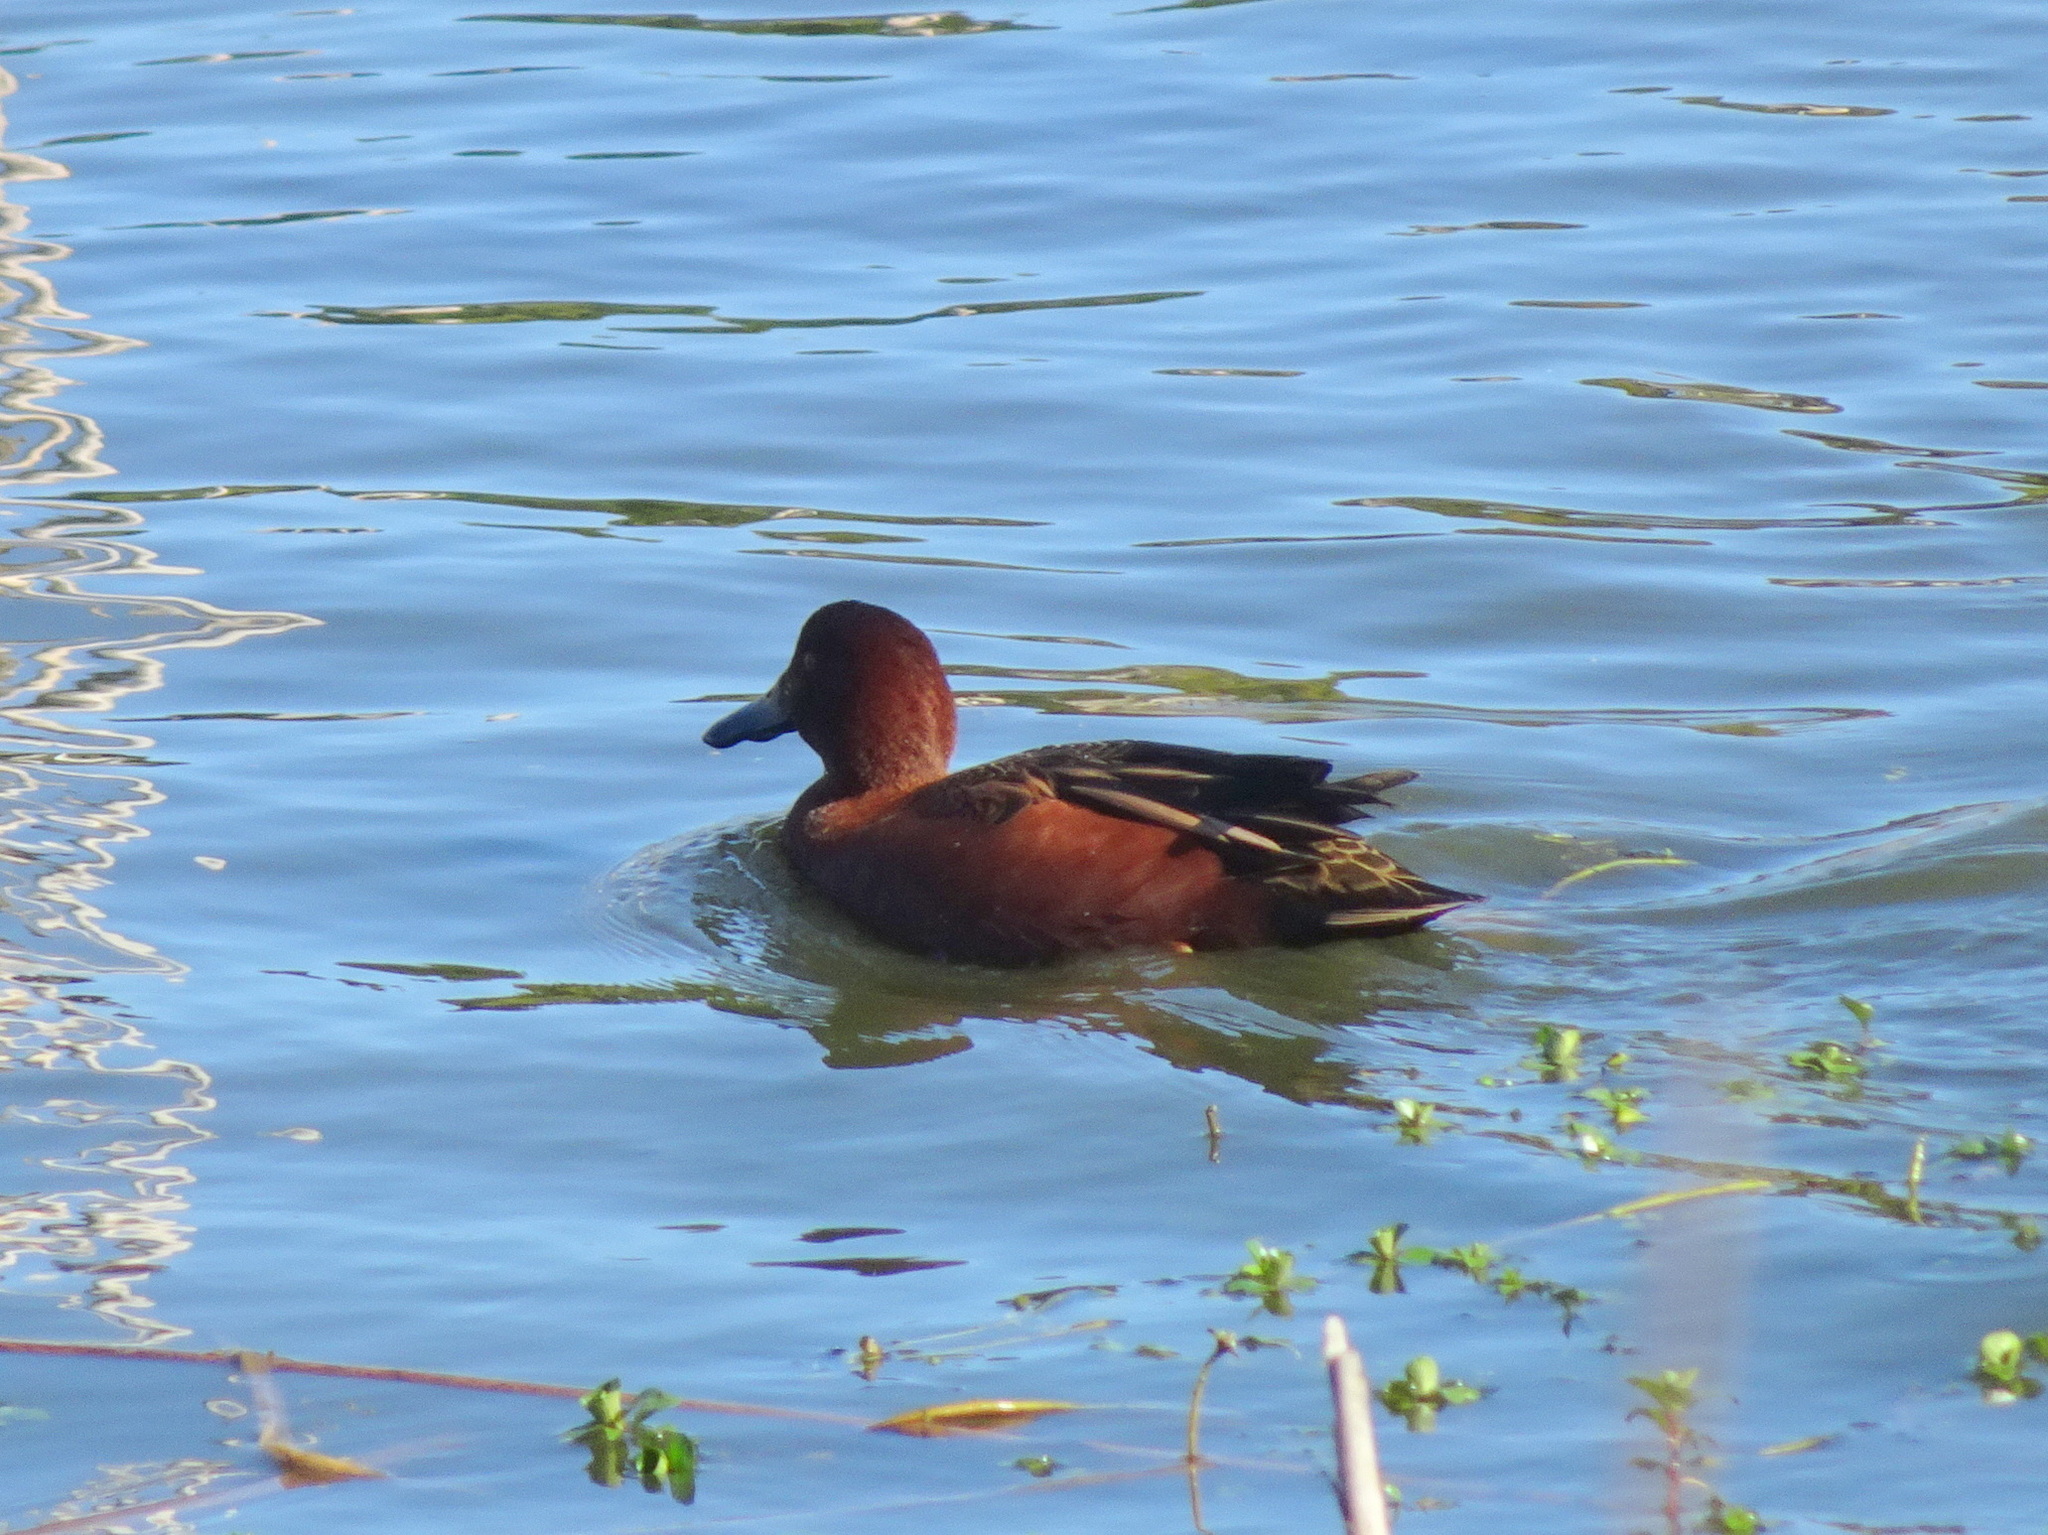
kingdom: Animalia
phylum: Chordata
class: Aves
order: Anseriformes
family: Anatidae
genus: Spatula
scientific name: Spatula cyanoptera
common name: Cinnamon teal
